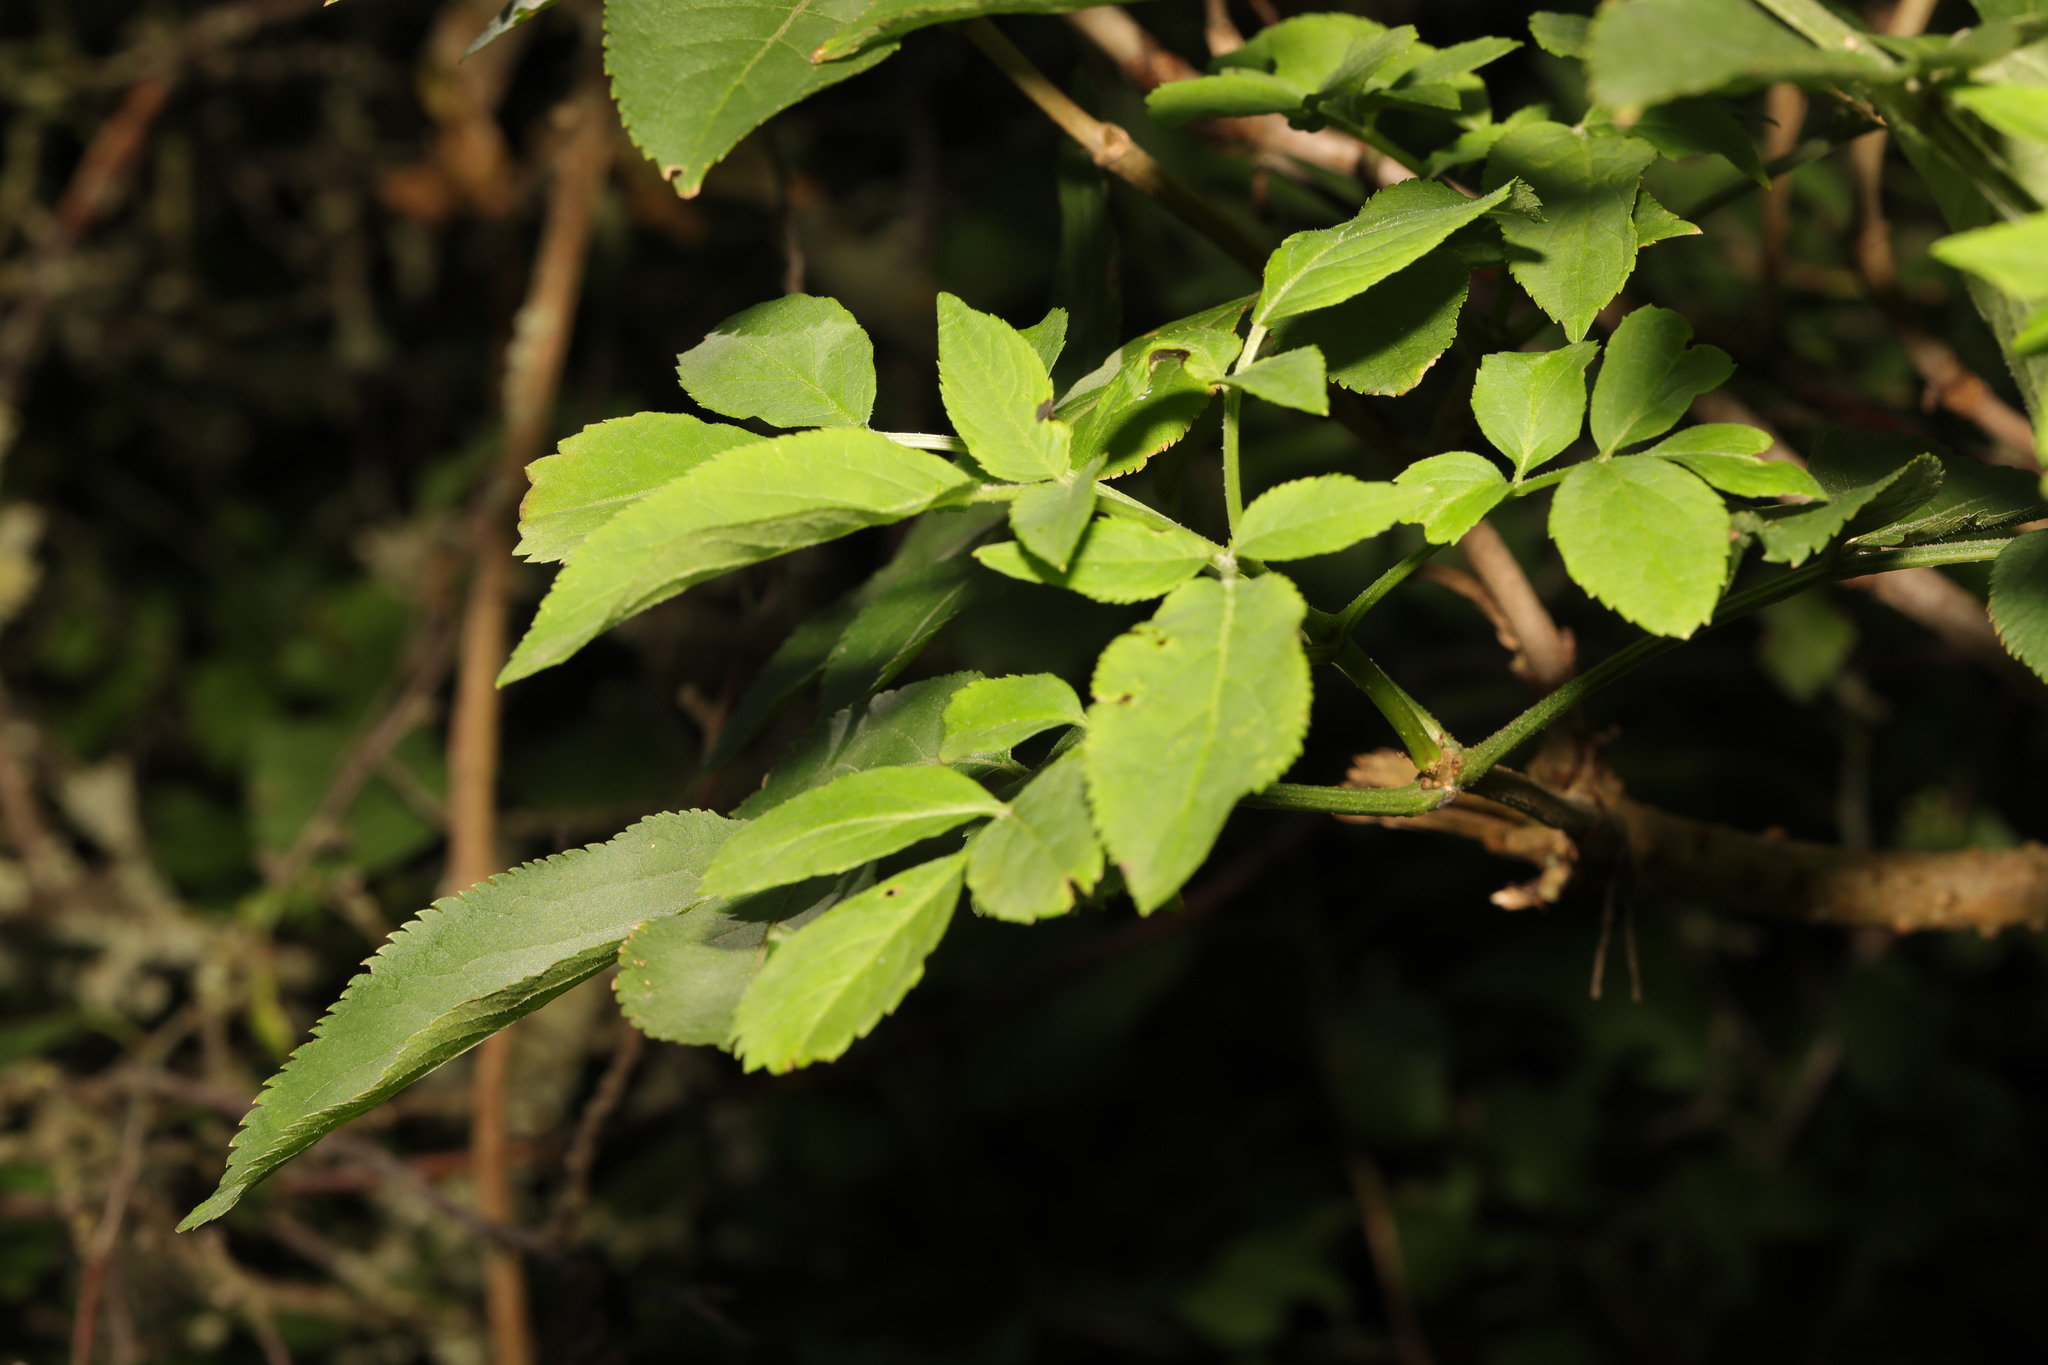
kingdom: Plantae
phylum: Tracheophyta
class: Magnoliopsida
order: Dipsacales
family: Viburnaceae
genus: Sambucus
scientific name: Sambucus nigra
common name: Elder
